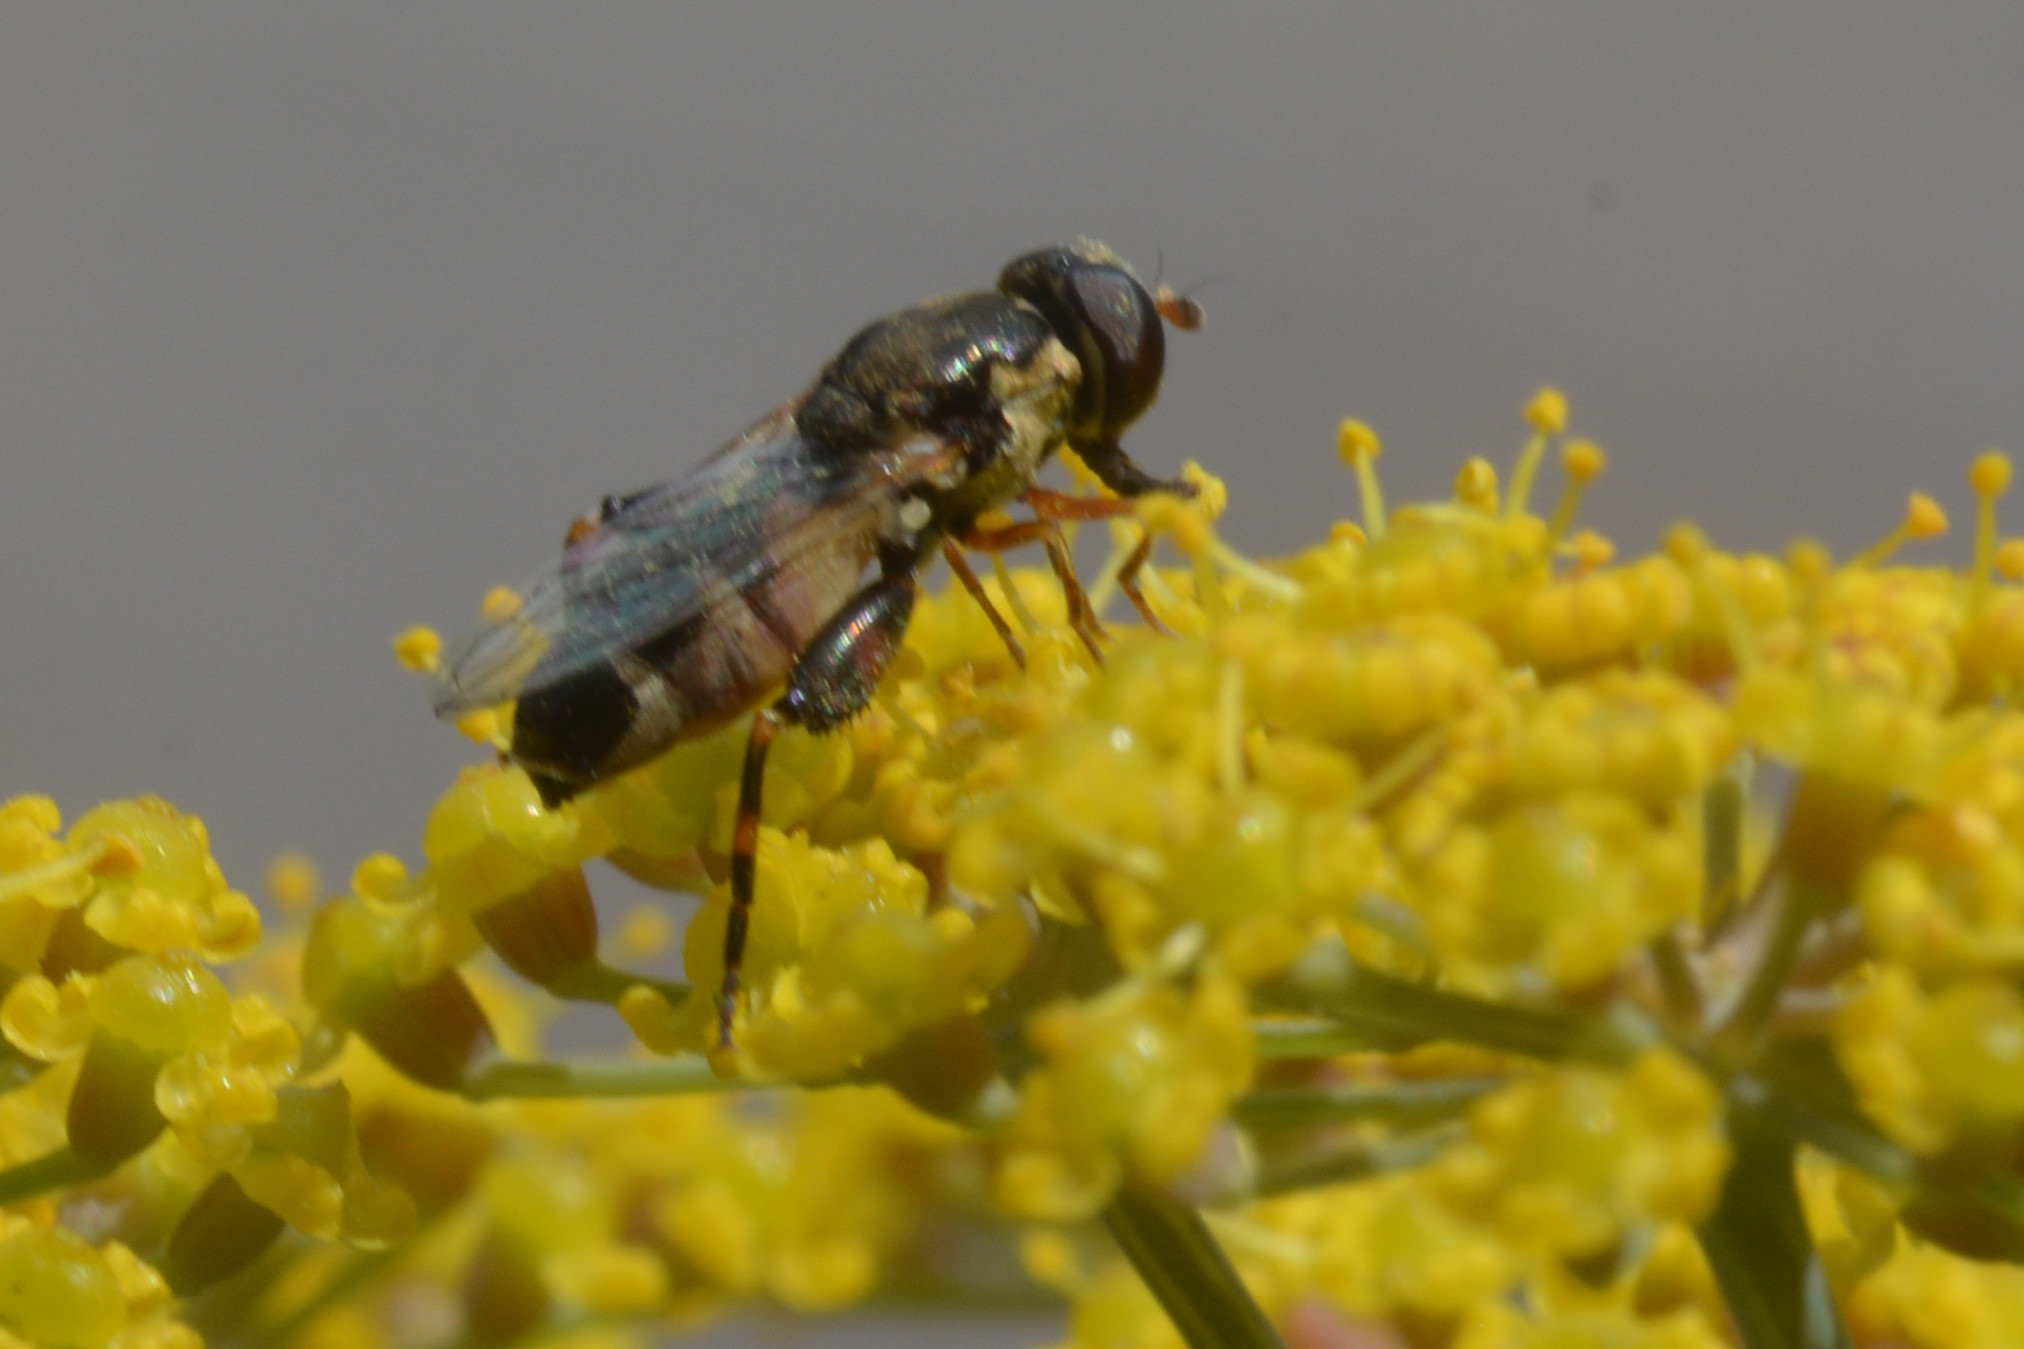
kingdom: Animalia
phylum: Arthropoda
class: Insecta
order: Diptera
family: Syrphidae
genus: Syritta
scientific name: Syritta pipiens
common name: Hover fly
